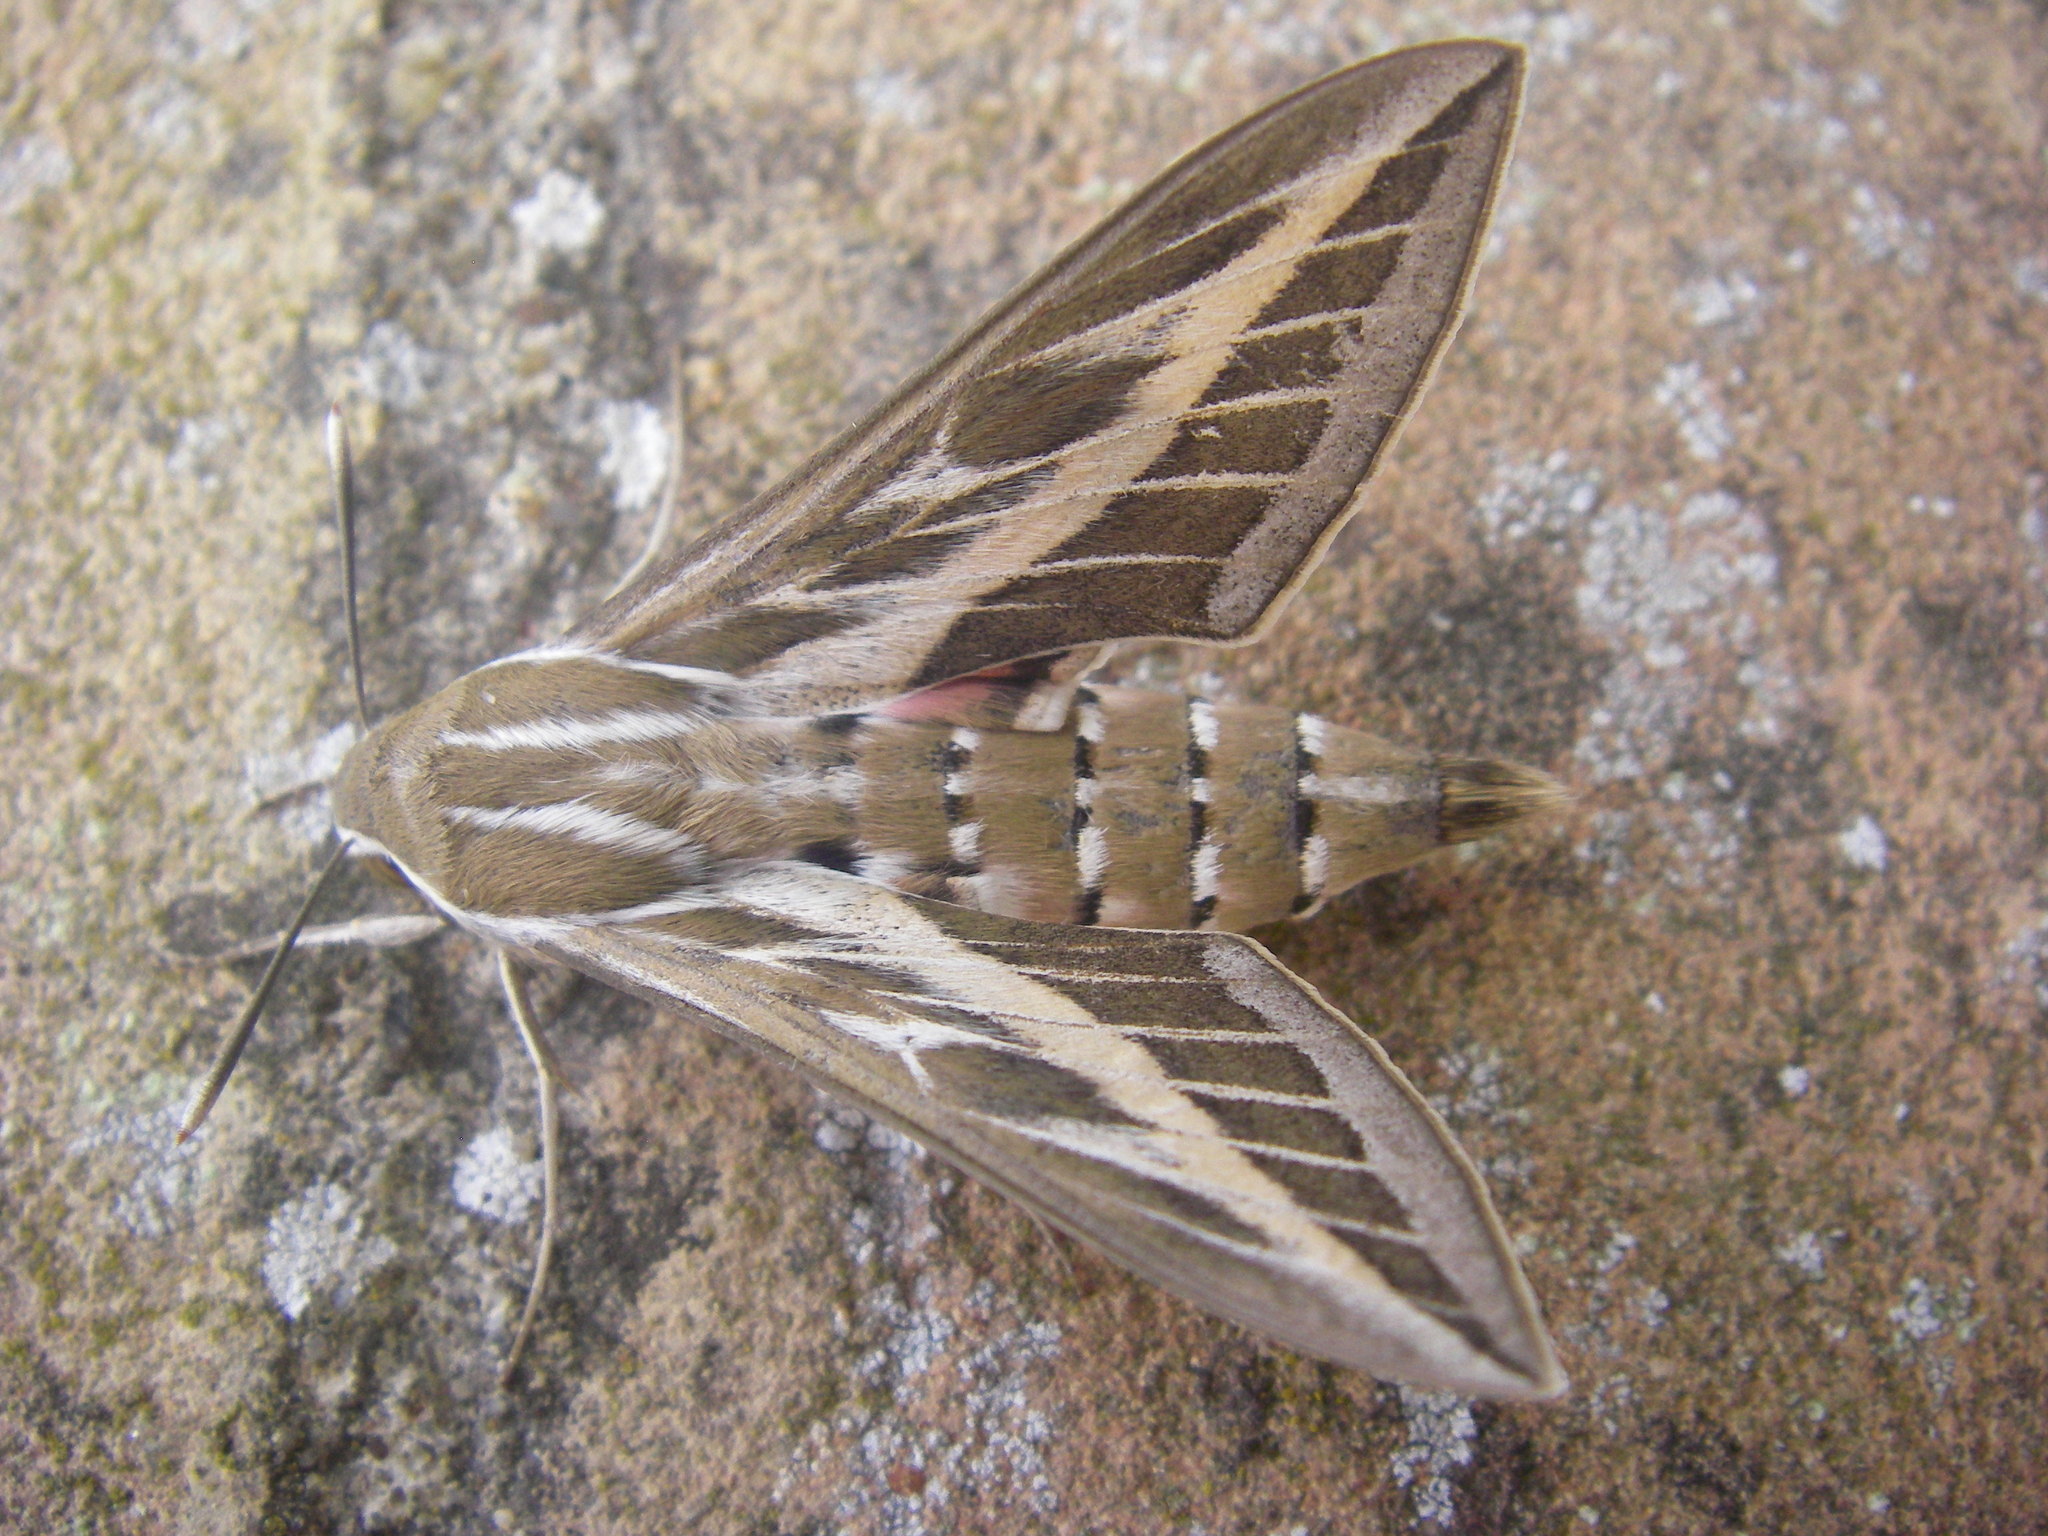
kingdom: Animalia
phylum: Arthropoda
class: Insecta
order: Lepidoptera
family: Sphingidae
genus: Hyles
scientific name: Hyles livornica
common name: Striped hawk-moth
